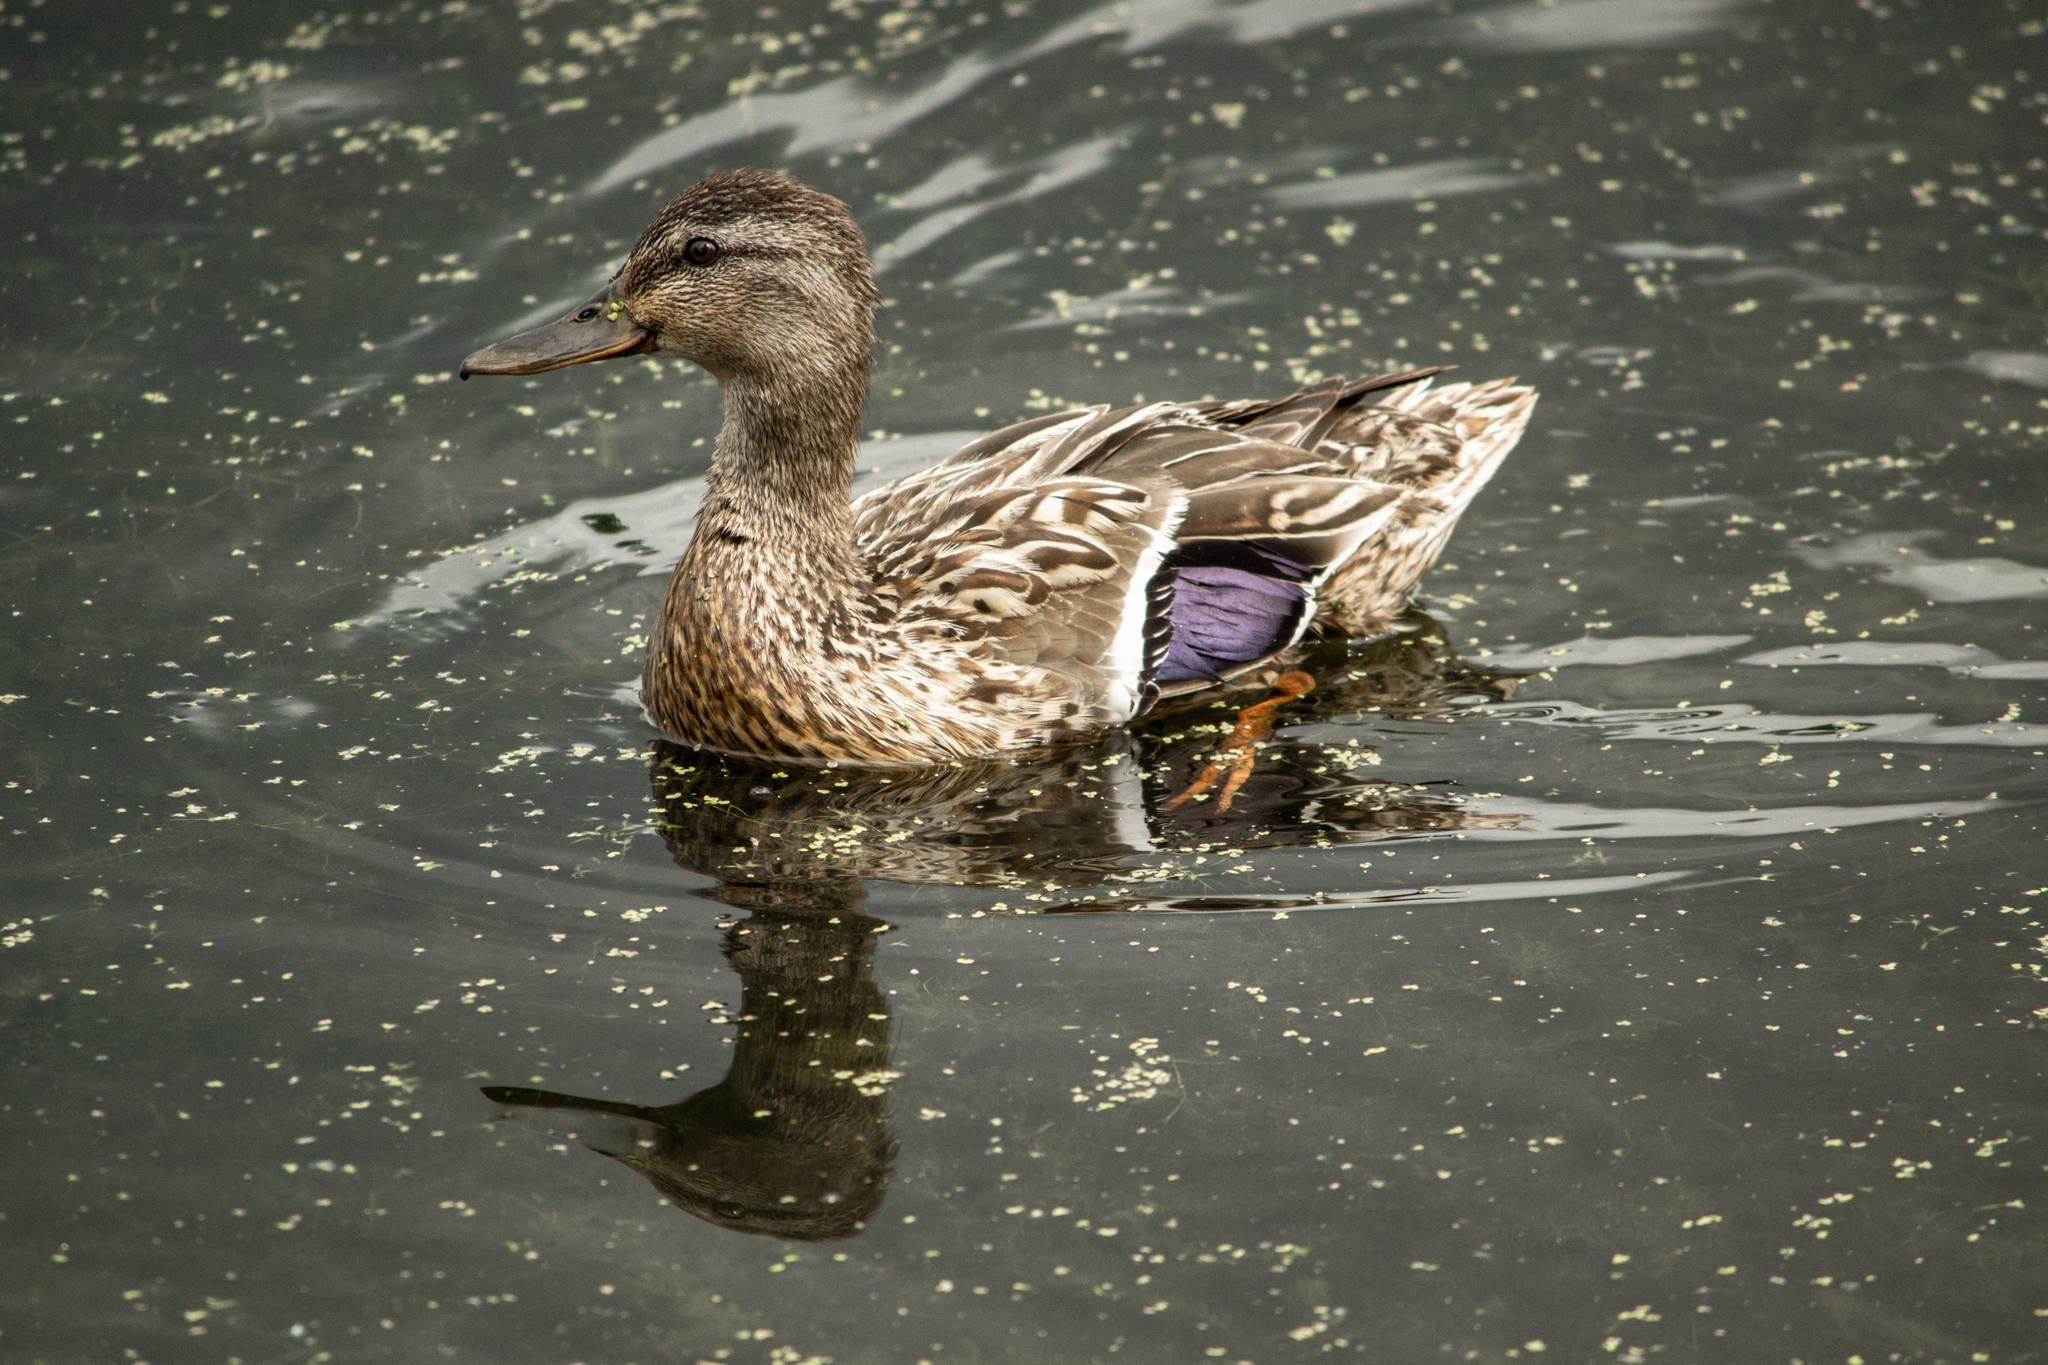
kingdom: Animalia
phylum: Chordata
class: Aves
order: Anseriformes
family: Anatidae
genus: Anas
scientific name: Anas platyrhynchos
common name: Mallard
